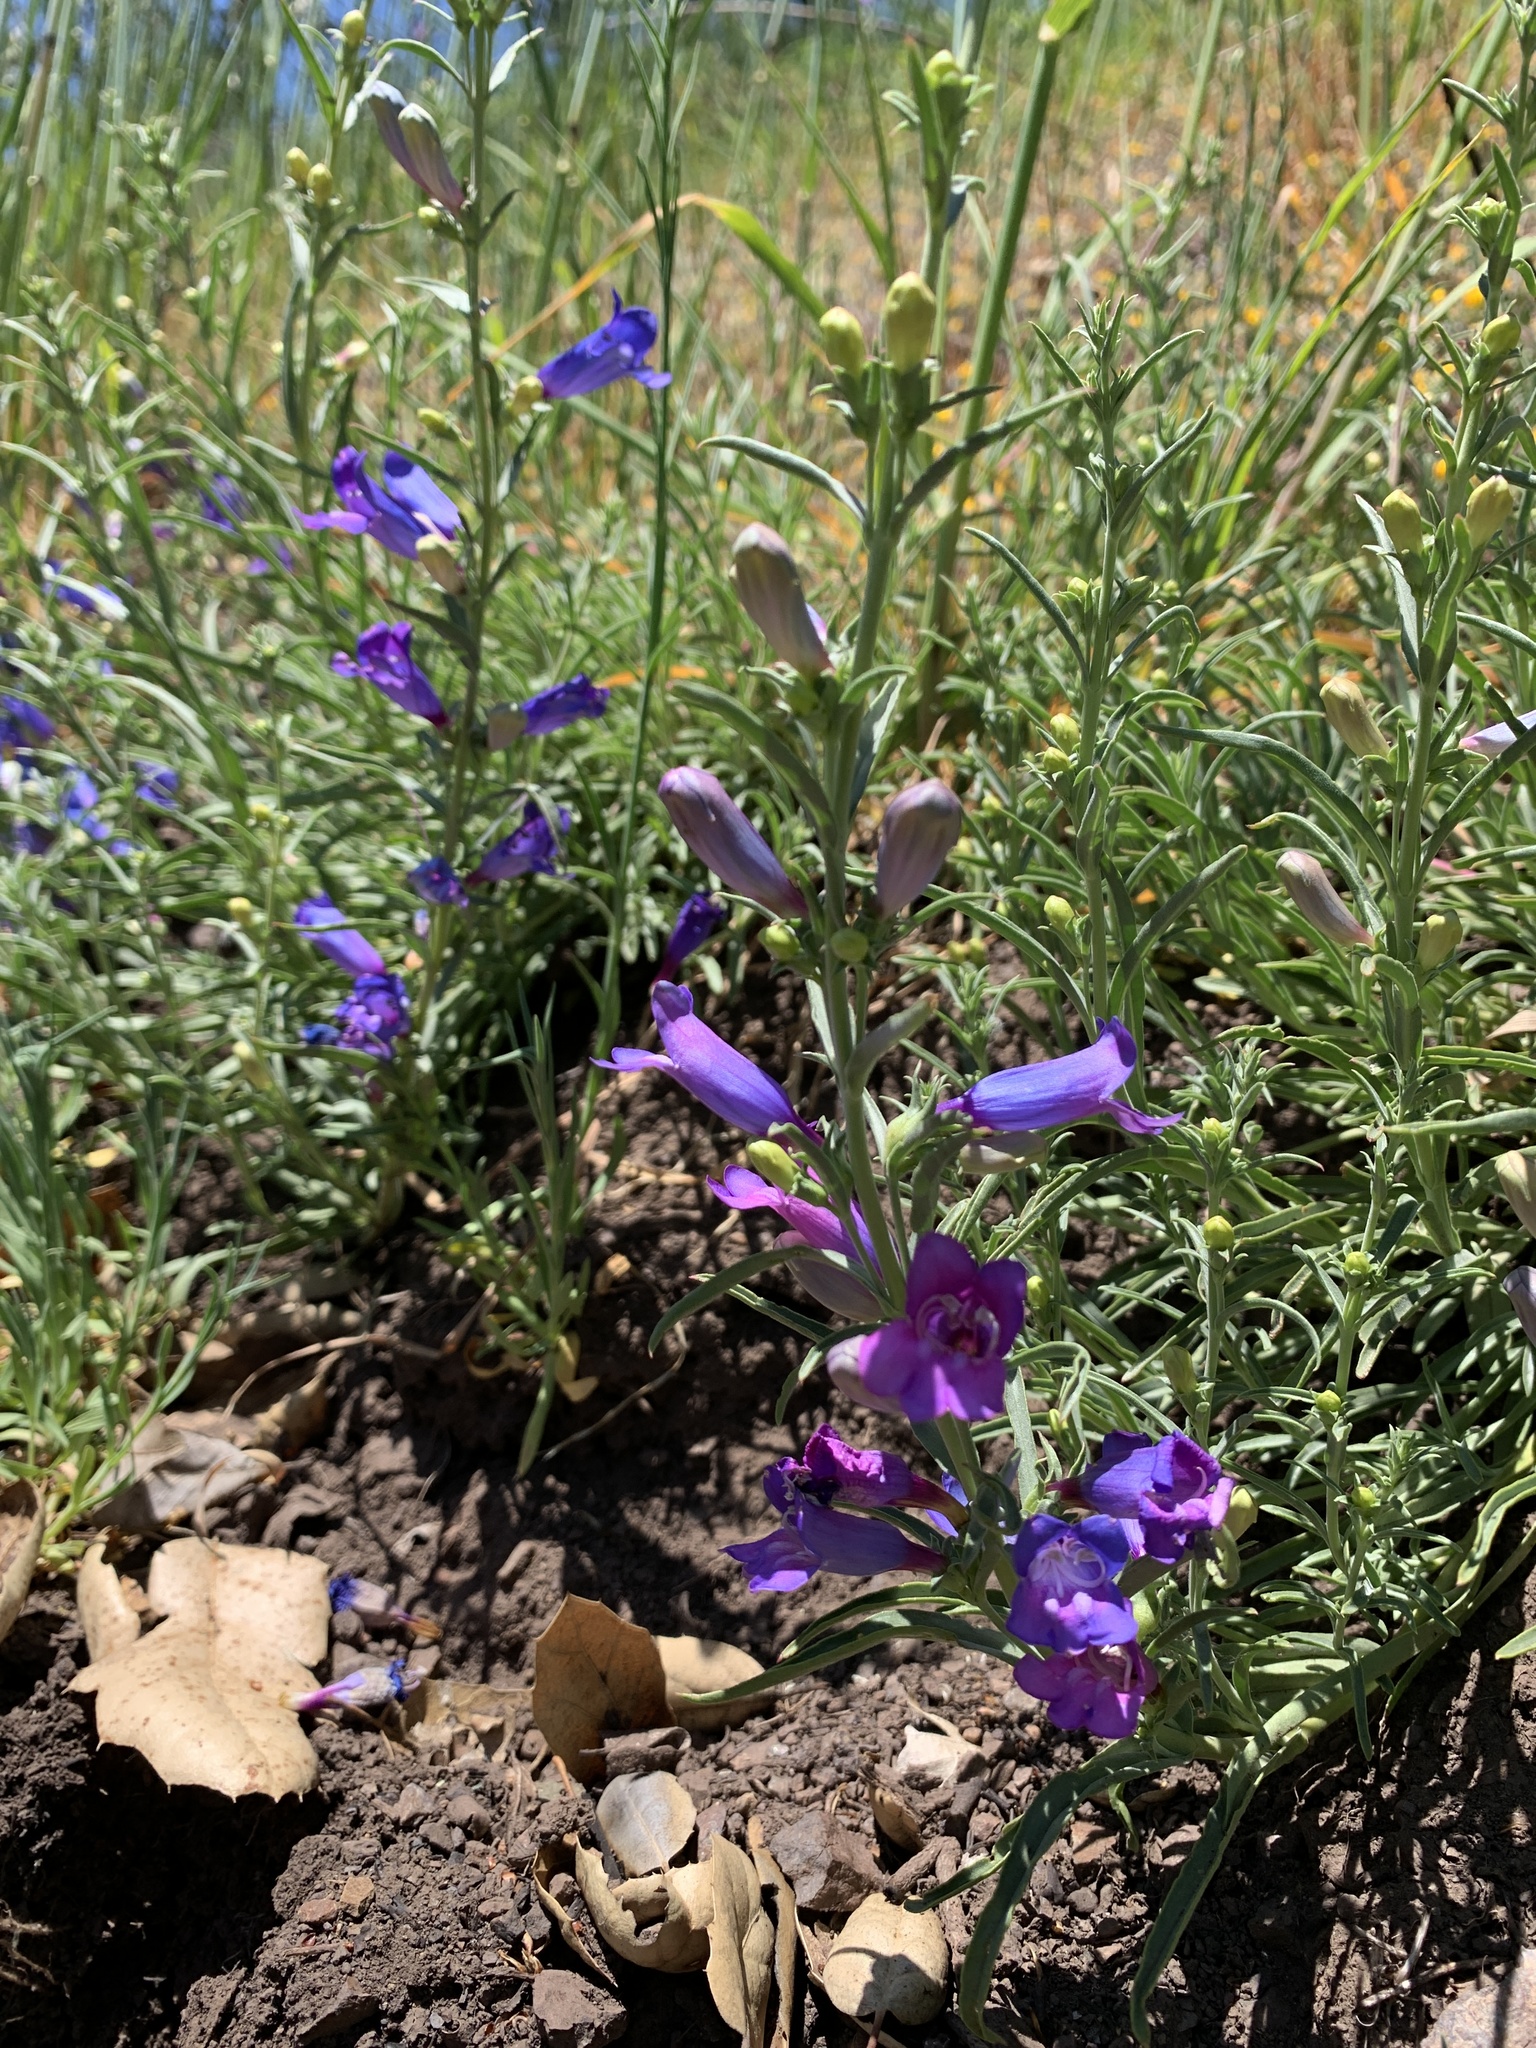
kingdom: Plantae
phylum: Tracheophyta
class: Magnoliopsida
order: Lamiales
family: Plantaginaceae
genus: Penstemon
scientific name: Penstemon heterophyllus
